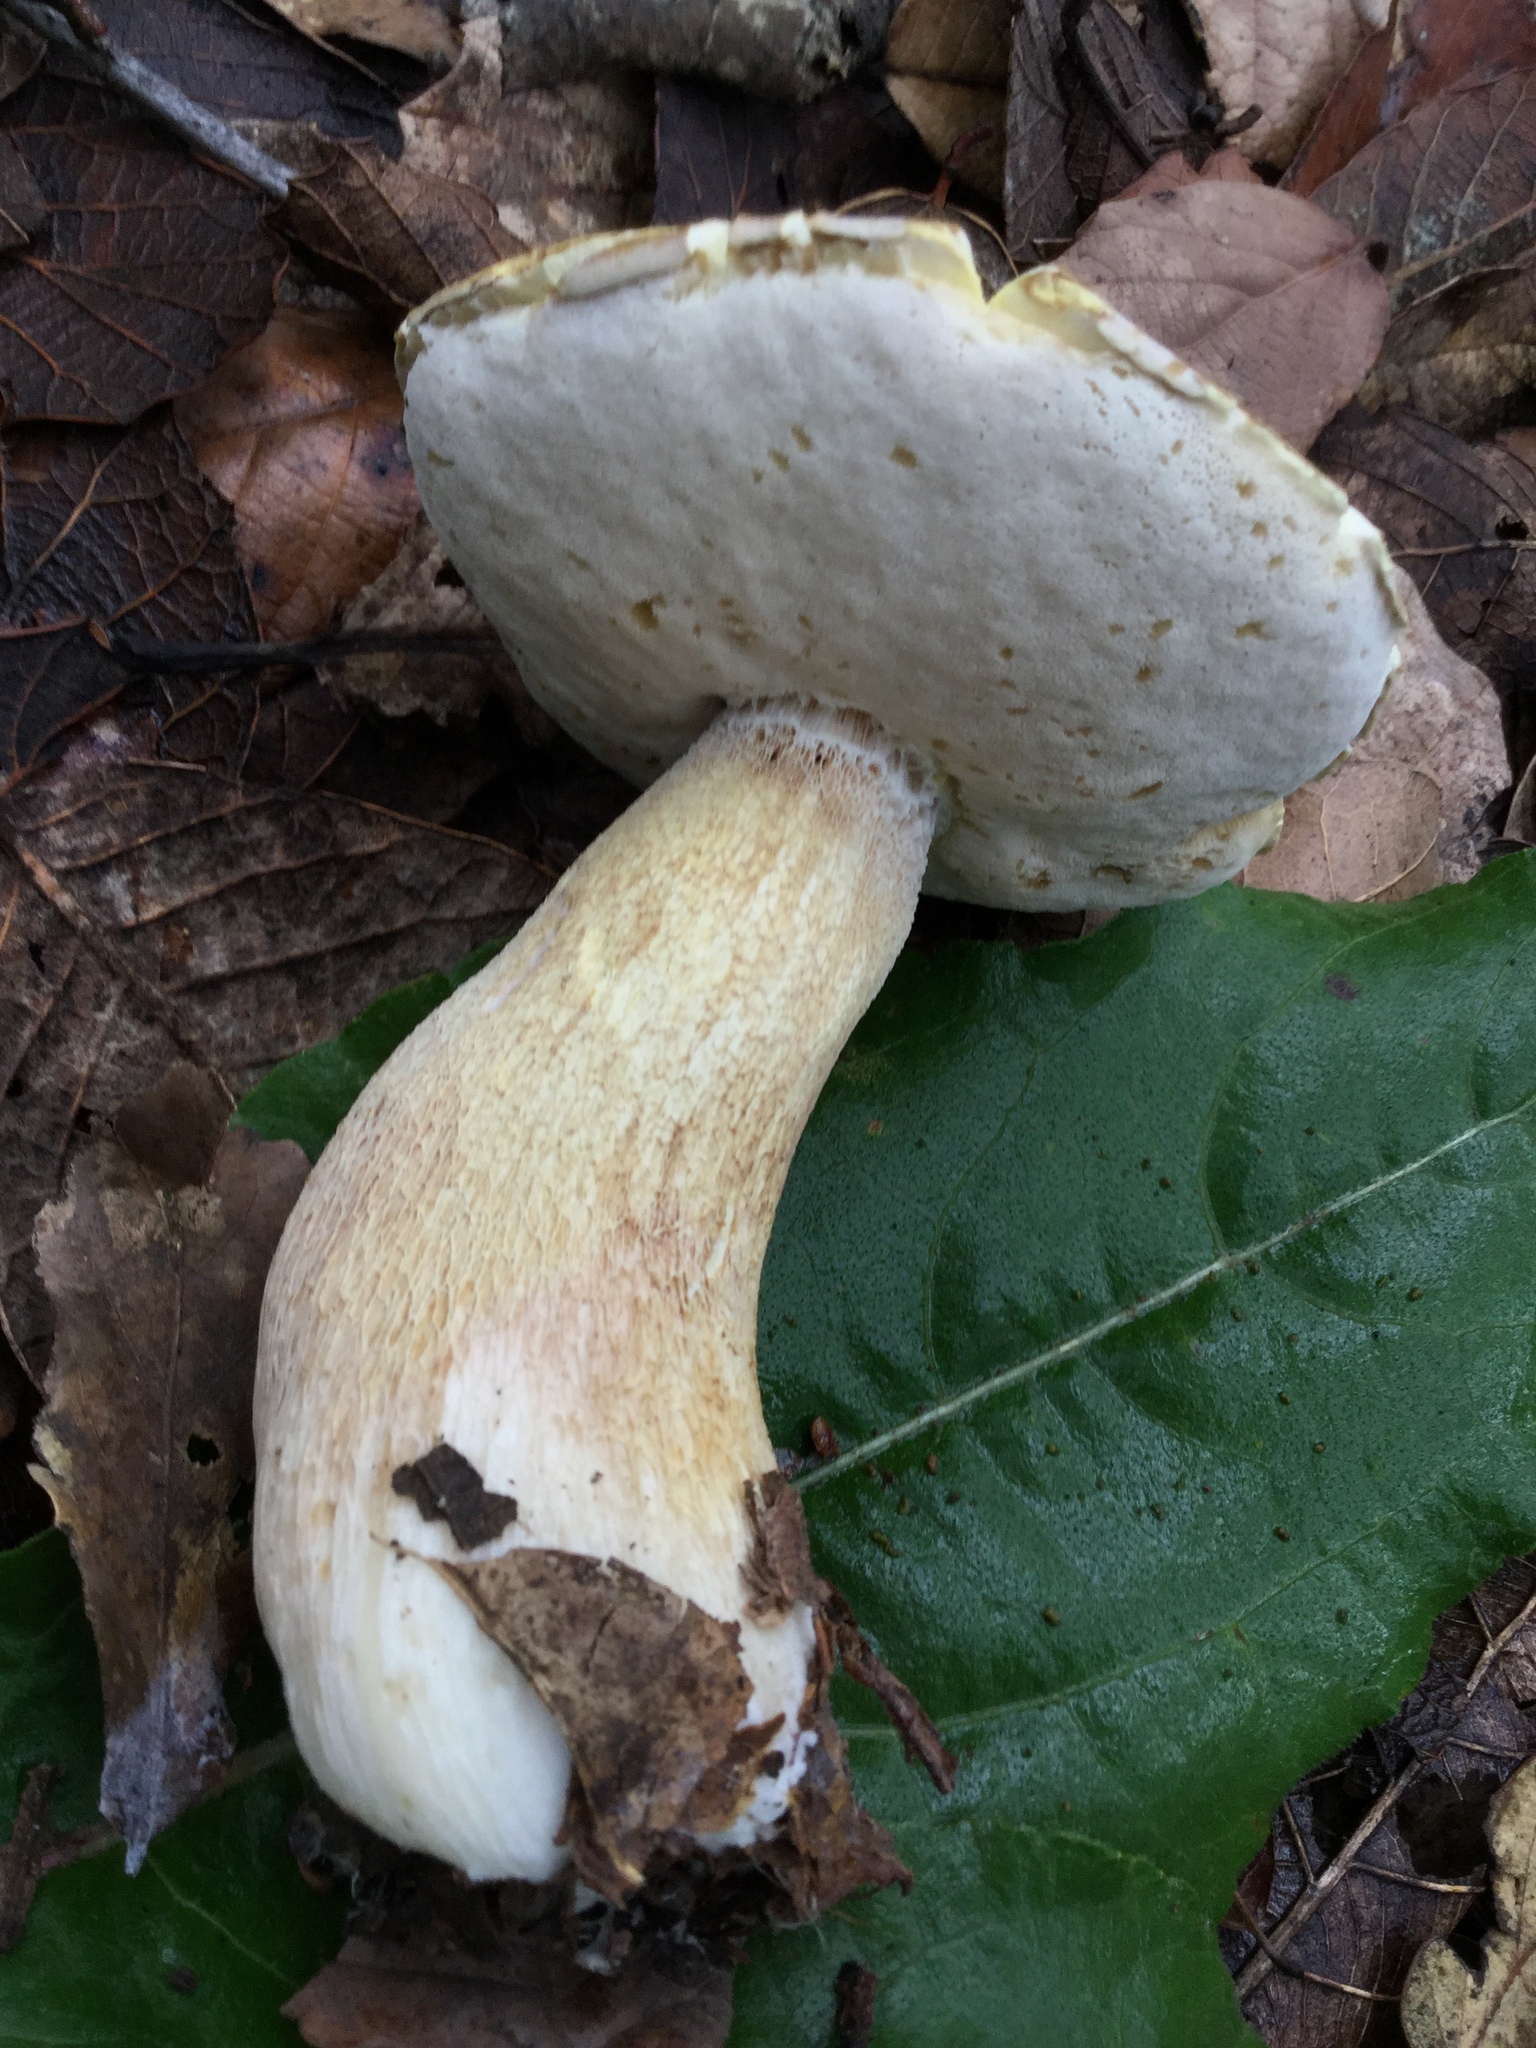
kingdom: Fungi
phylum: Basidiomycota
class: Agaricomycetes
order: Boletales
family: Boletaceae
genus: Boletus
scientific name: Boletus quercophilus
